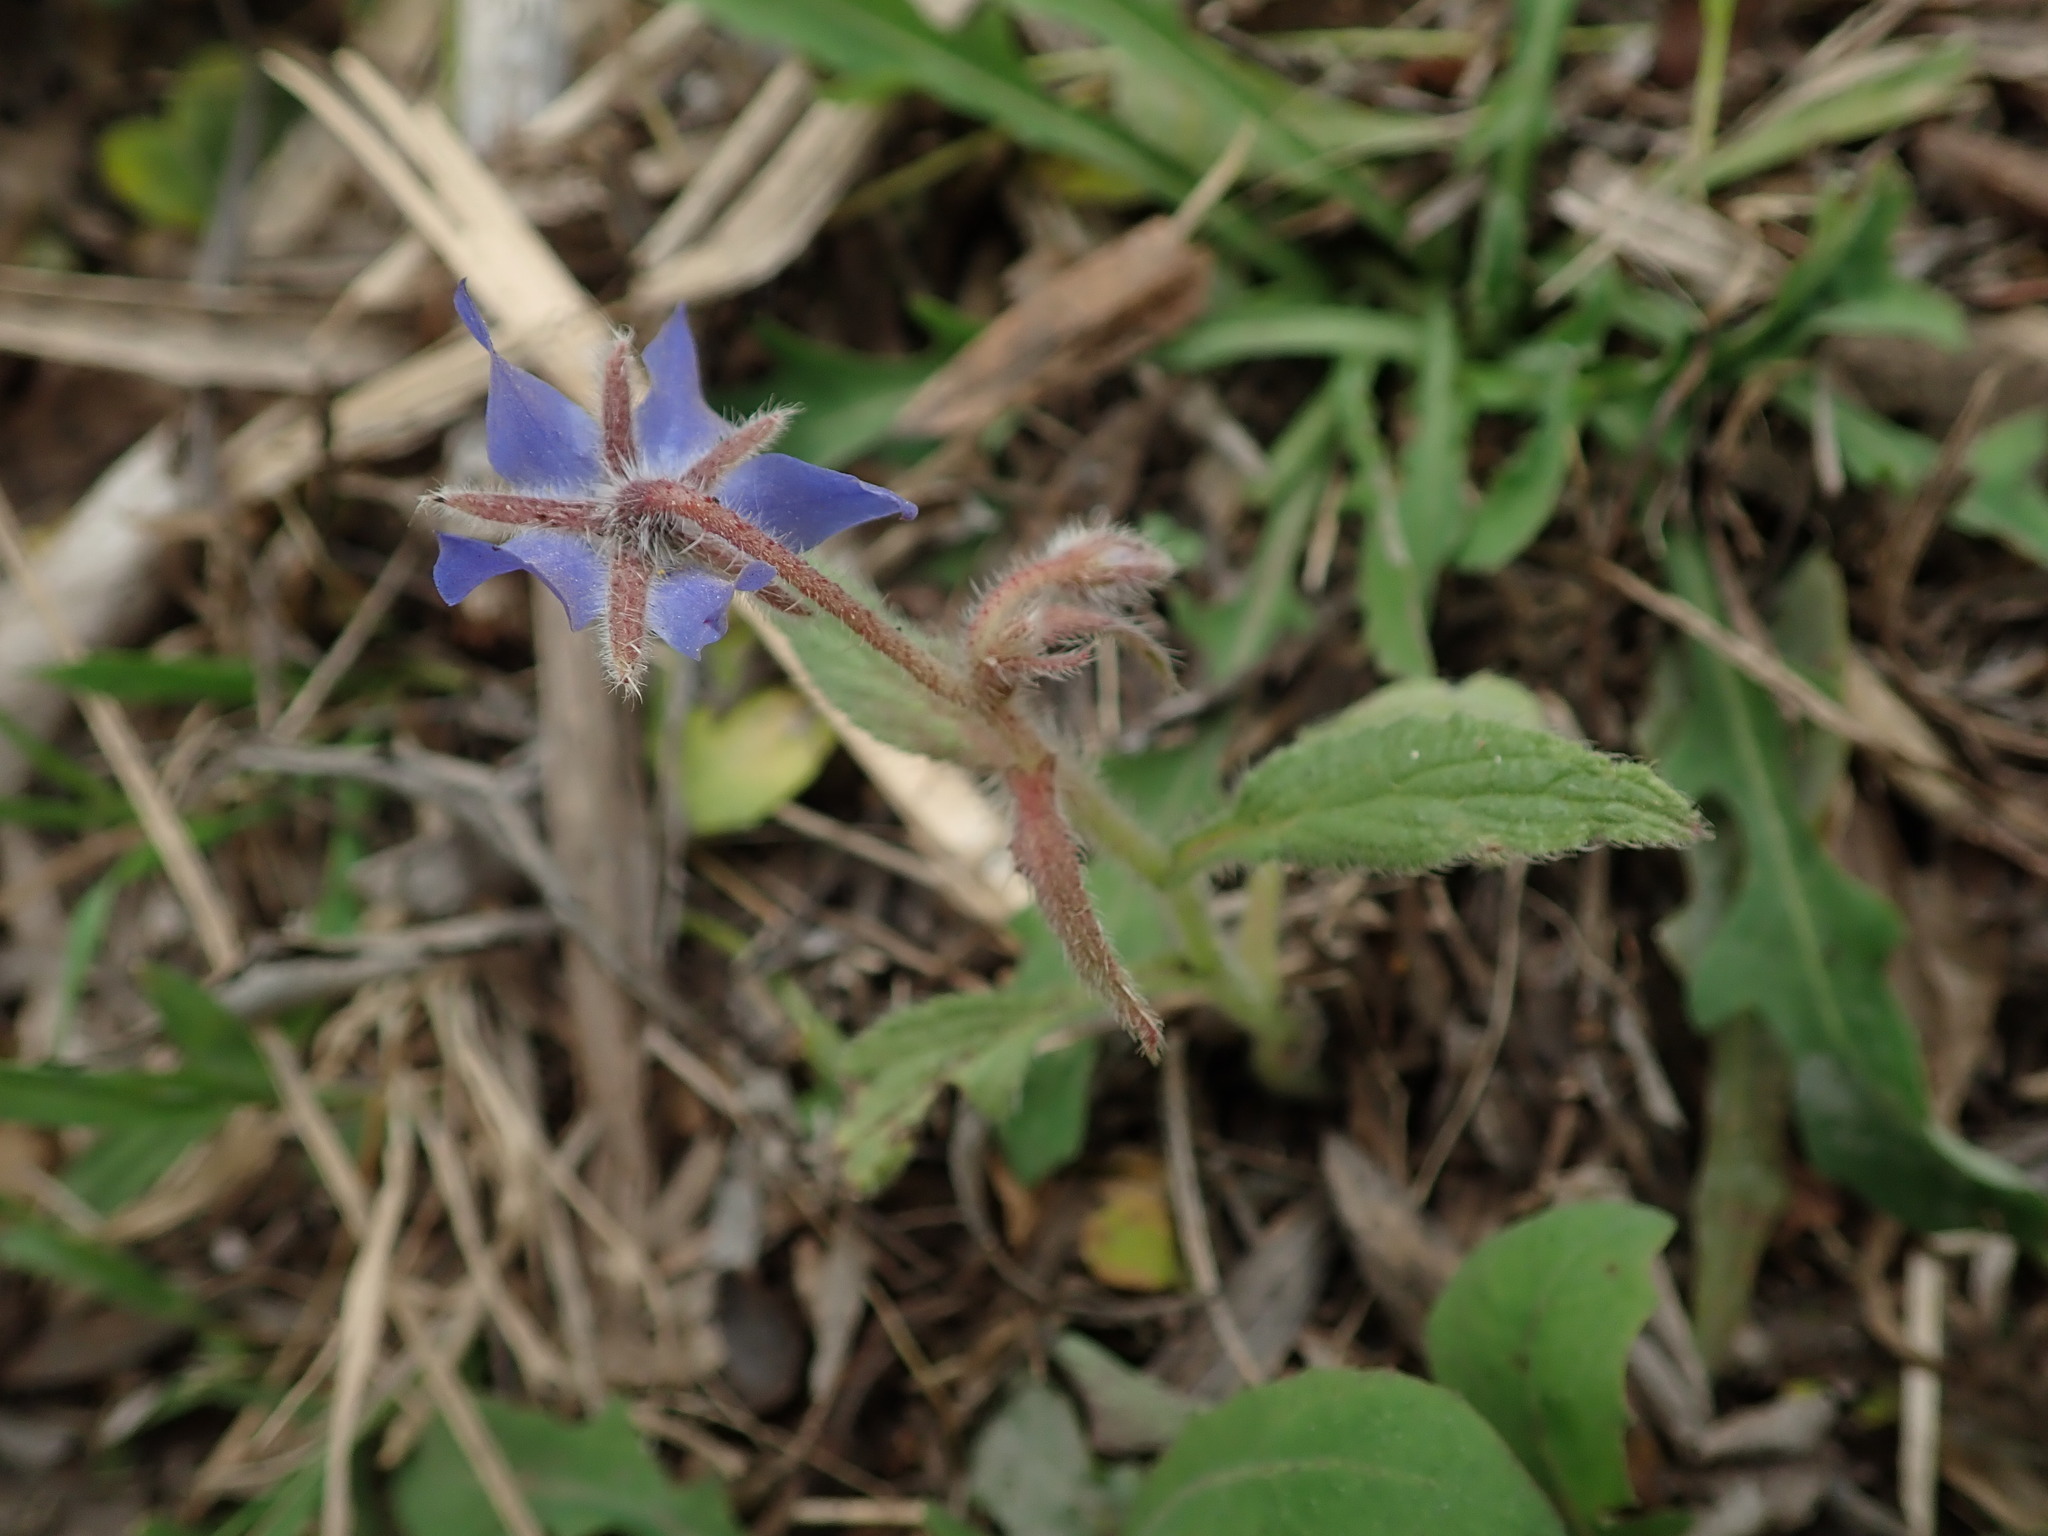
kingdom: Plantae
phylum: Tracheophyta
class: Magnoliopsida
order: Boraginales
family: Boraginaceae
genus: Borago
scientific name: Borago officinalis
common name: Borage
